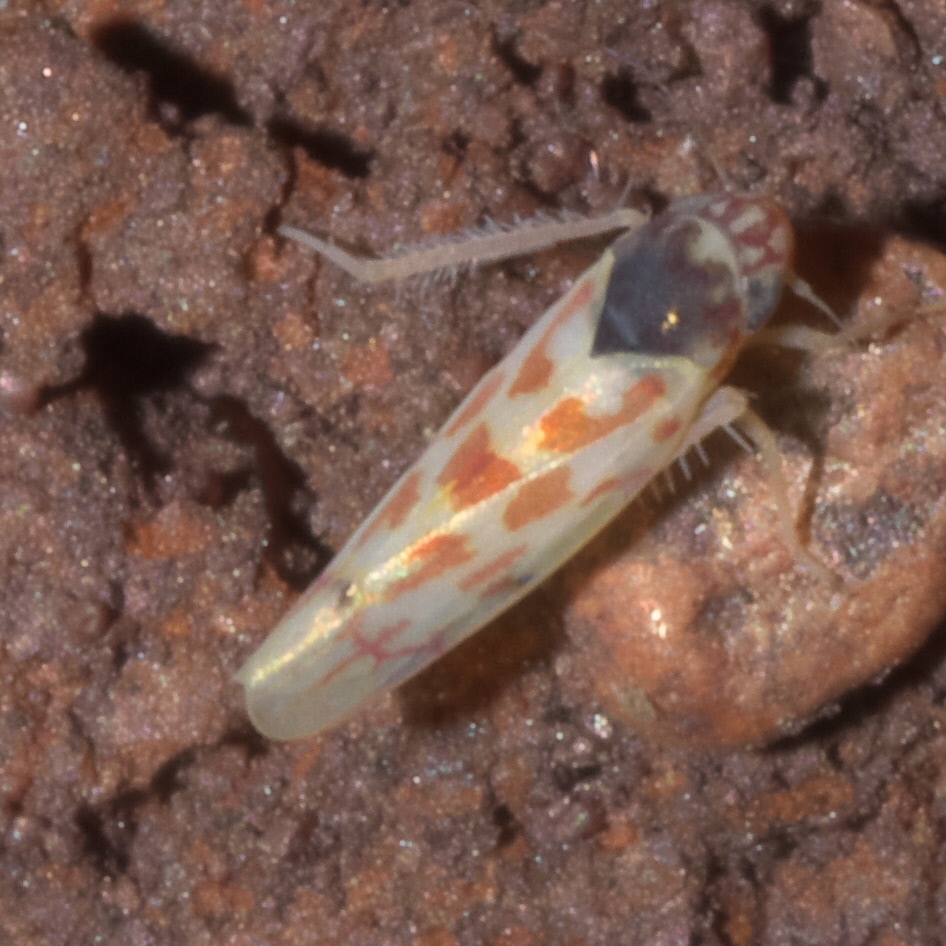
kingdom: Animalia
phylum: Arthropoda
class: Insecta
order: Hemiptera
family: Cicadellidae
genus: Eratoneura
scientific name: Eratoneura ardens
